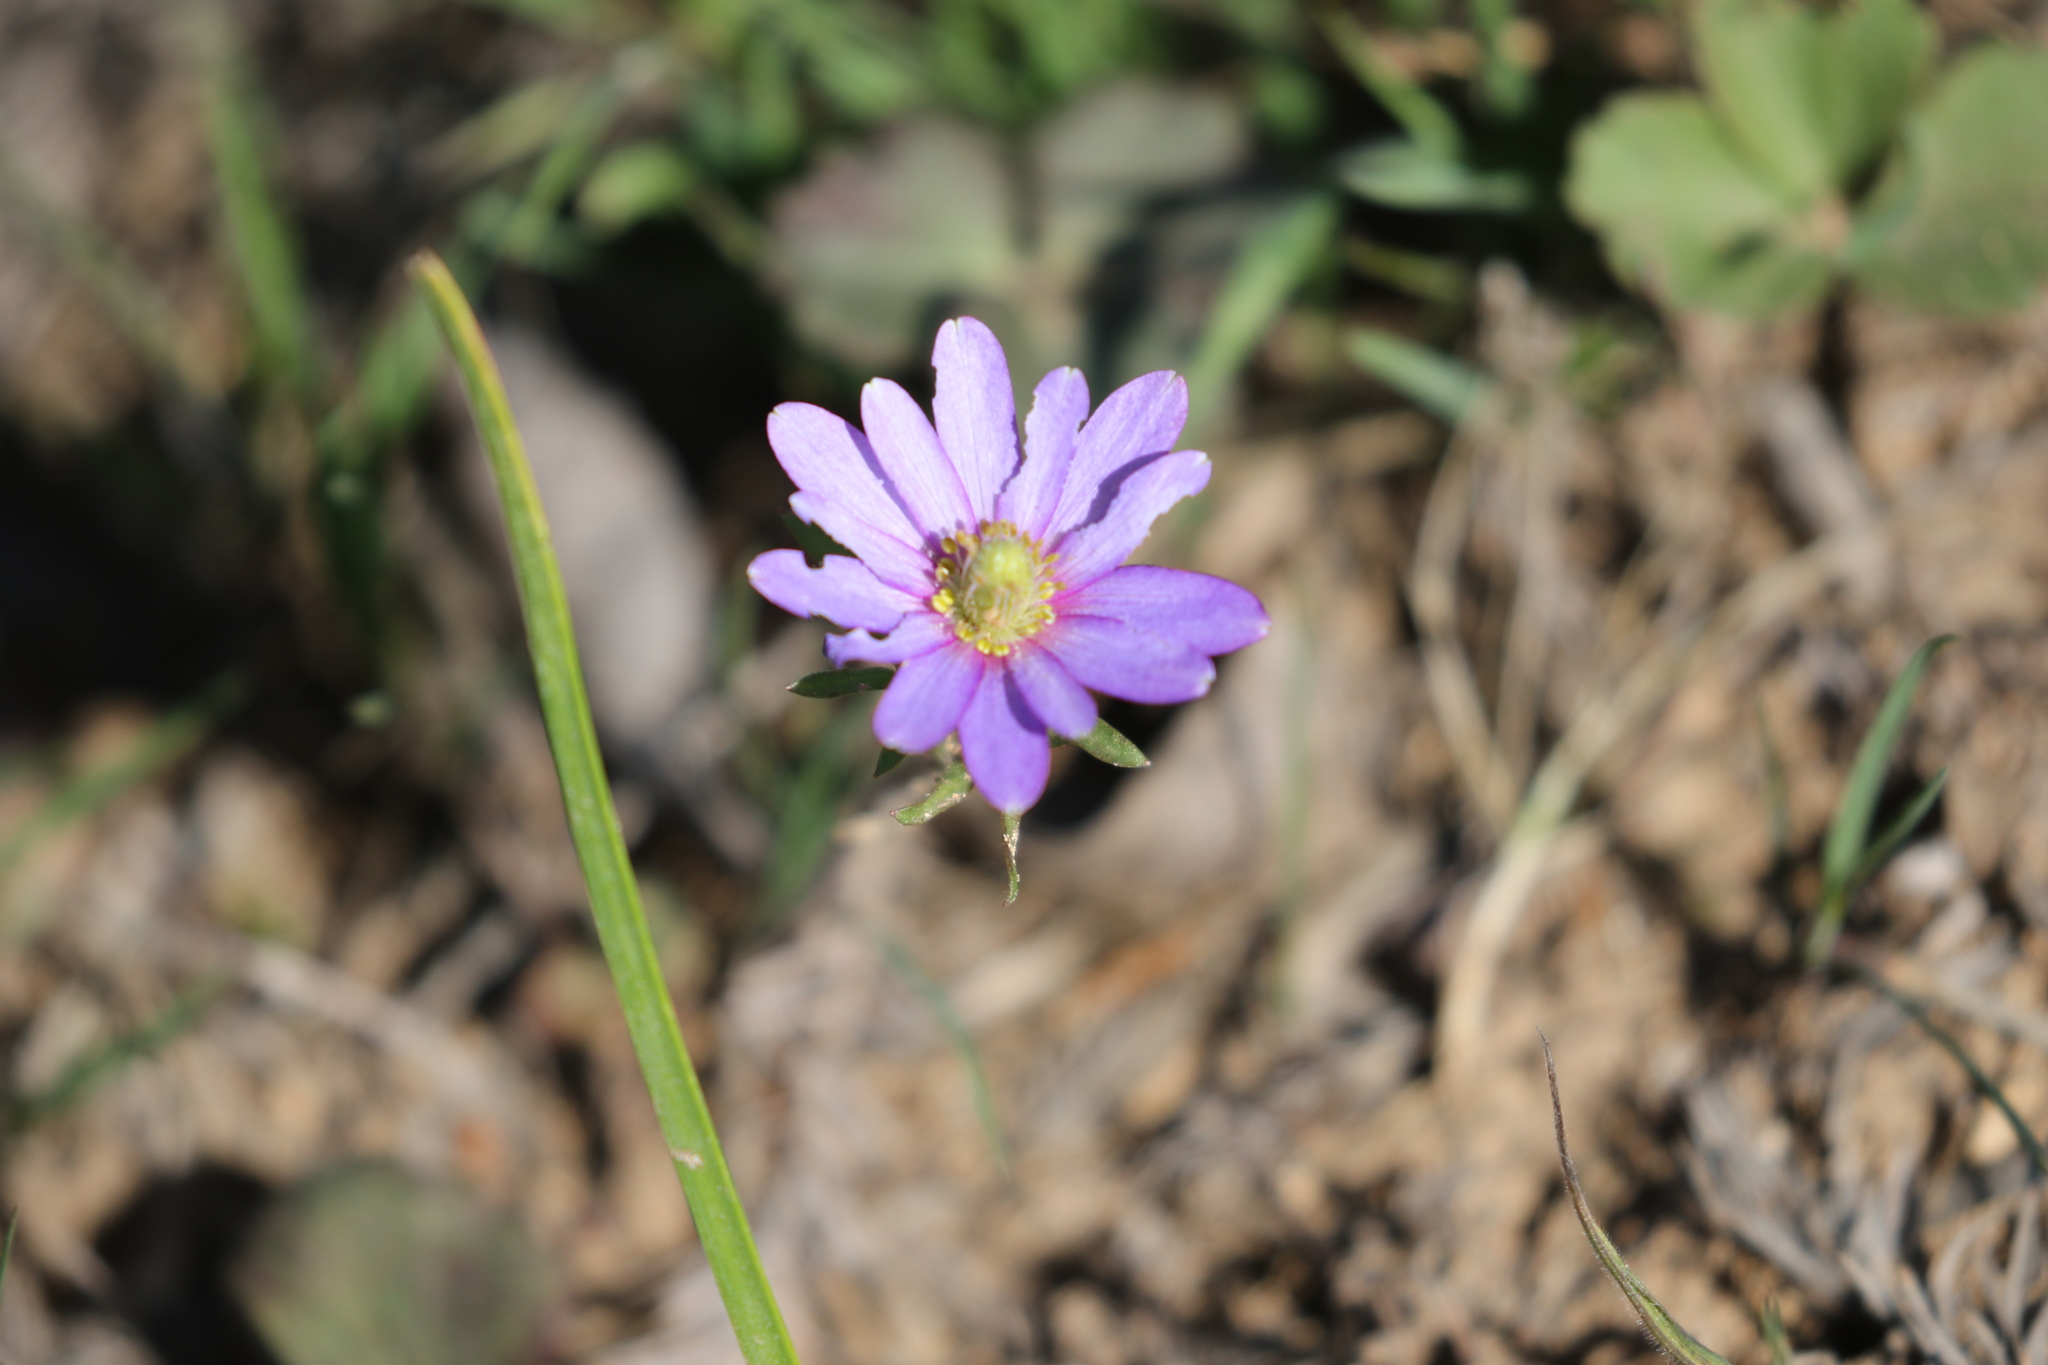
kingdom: Plantae
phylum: Tracheophyta
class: Magnoliopsida
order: Ranunculales
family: Ranunculaceae
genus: Anemone
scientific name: Anemone berlandieri
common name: Ten-petal anemone
